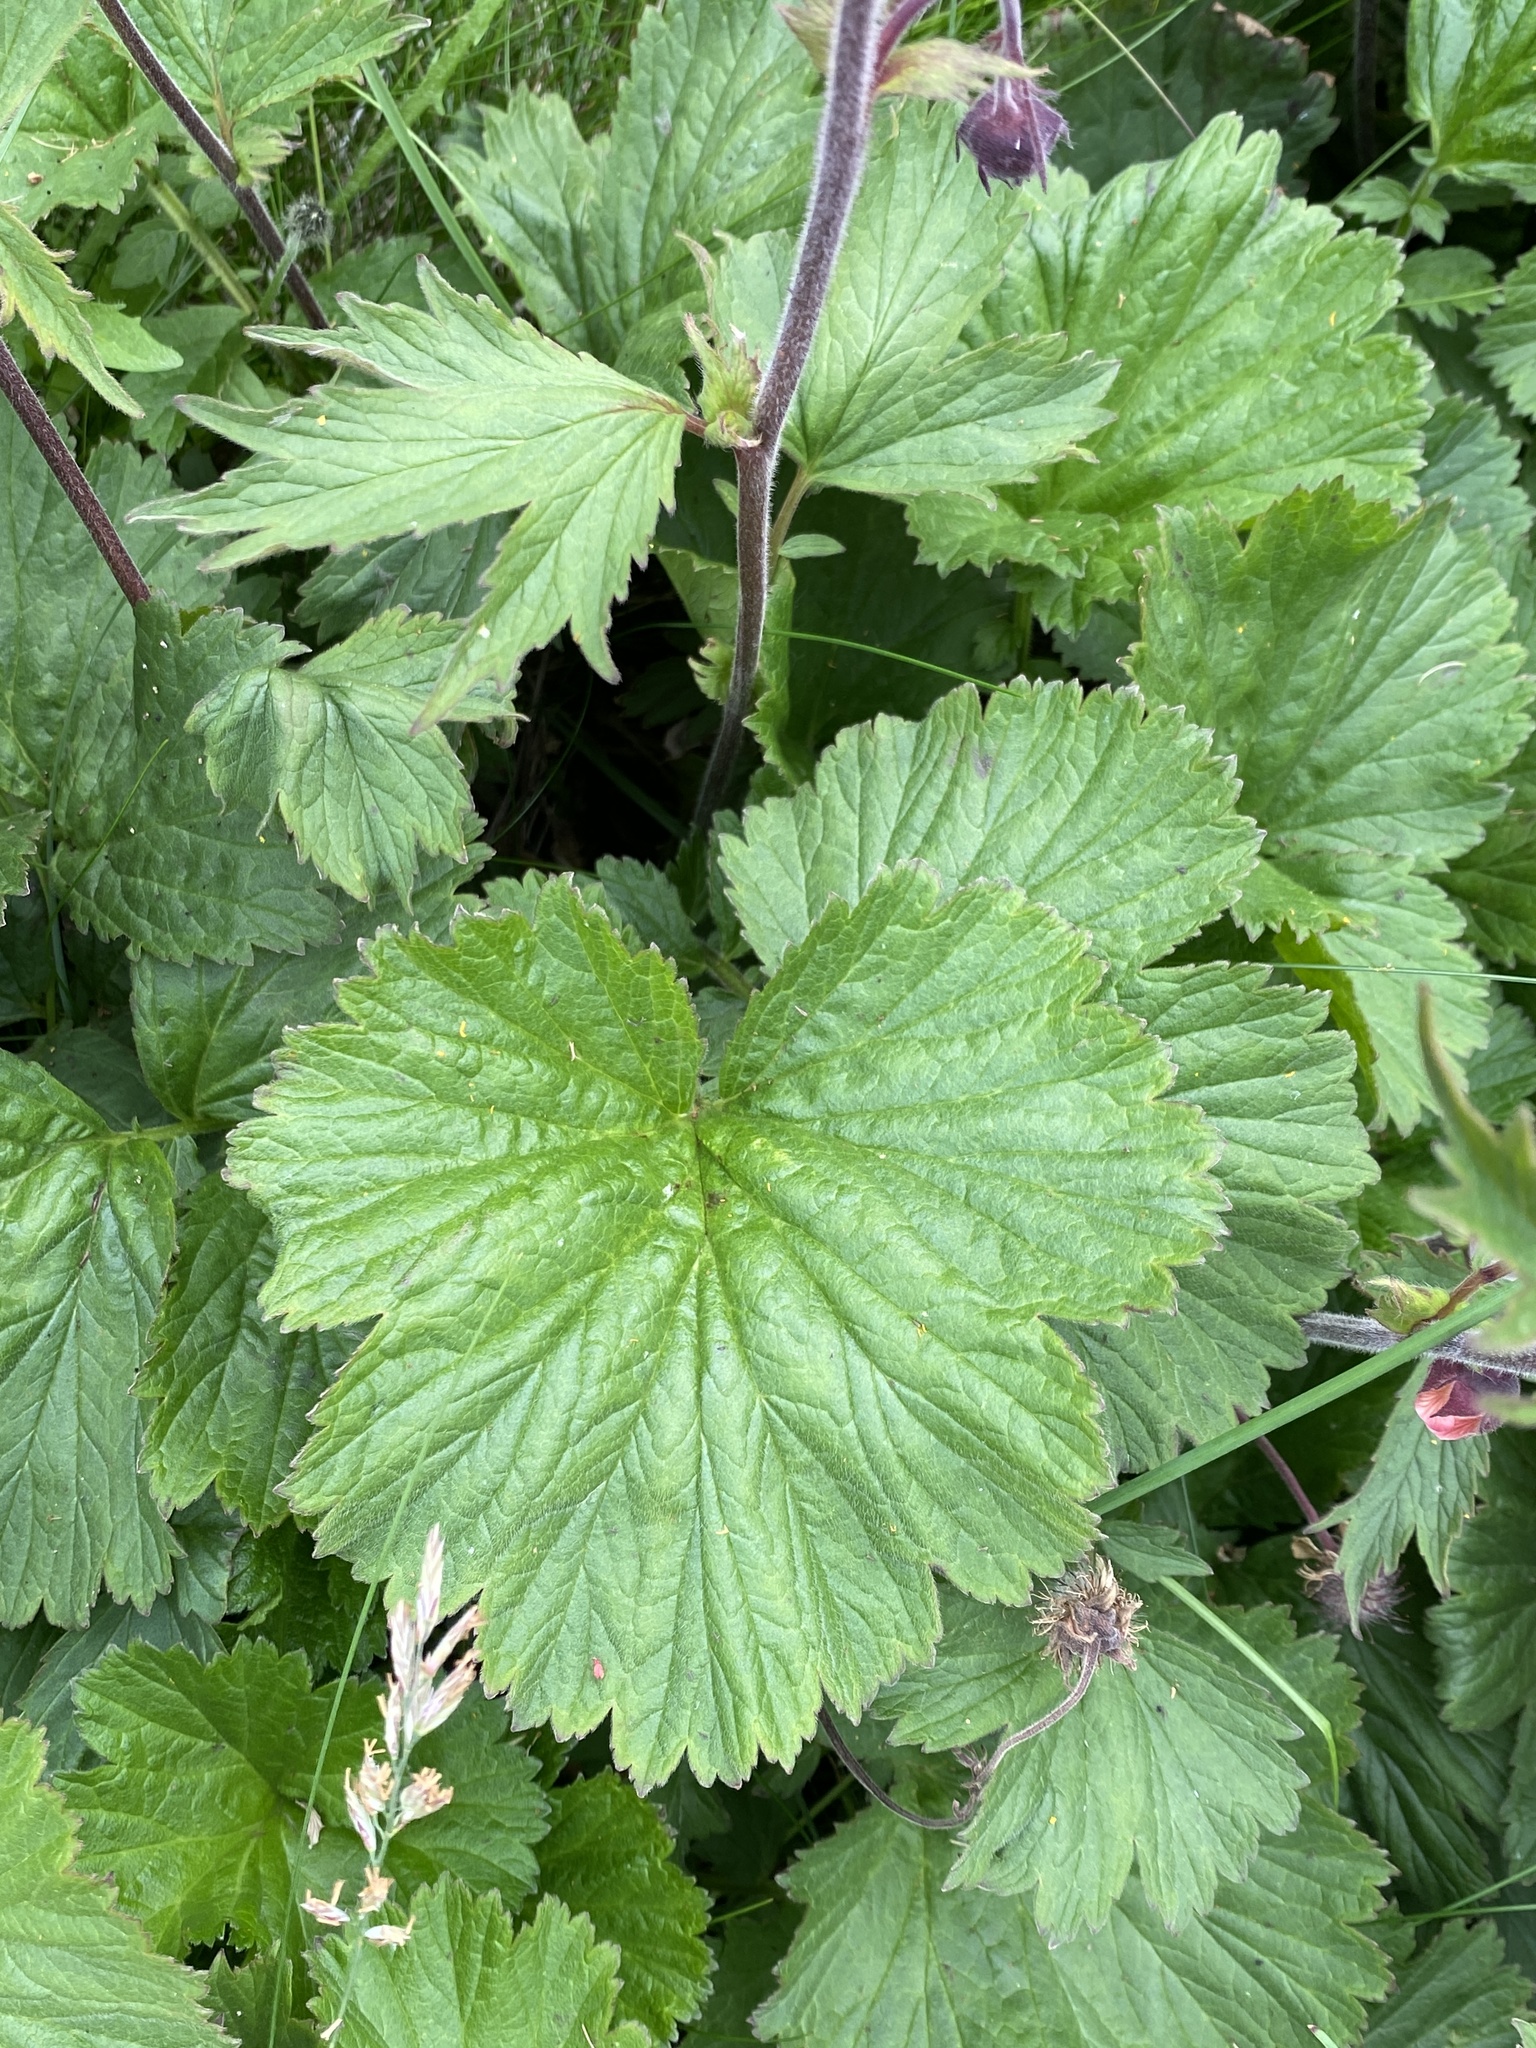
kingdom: Plantae
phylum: Tracheophyta
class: Magnoliopsida
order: Rosales
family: Rosaceae
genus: Geum
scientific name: Geum rivale
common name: Water avens
